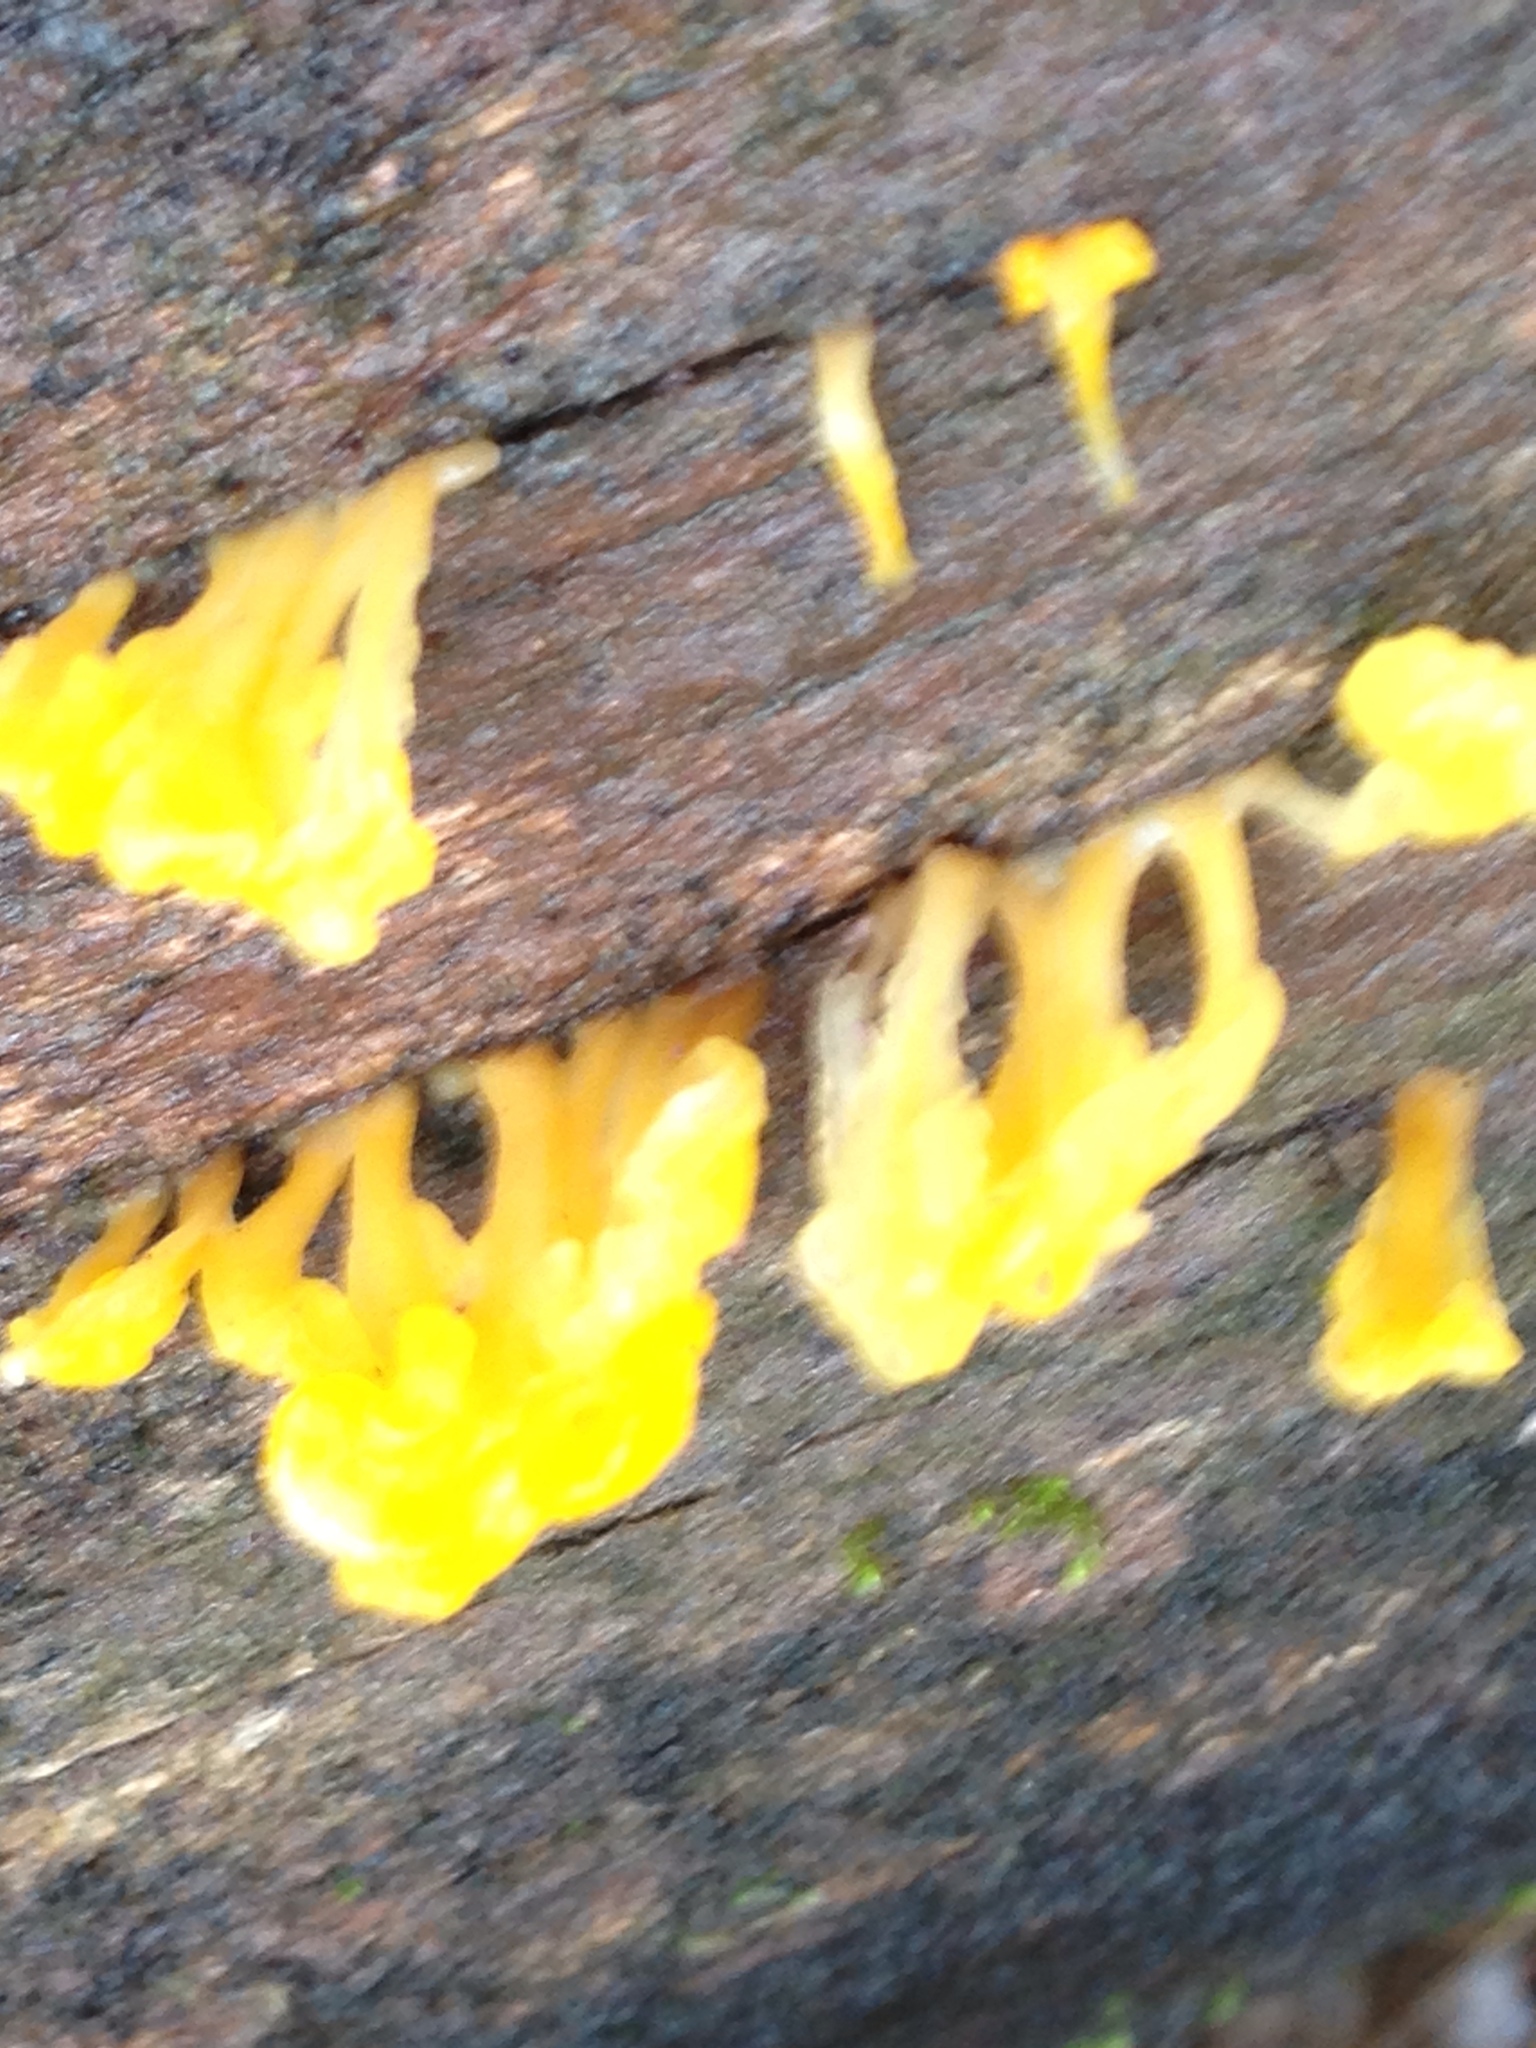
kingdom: Fungi
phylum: Basidiomycota
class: Dacrymycetes
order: Dacrymycetales
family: Dacrymycetaceae
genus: Dacrymyces
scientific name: Dacrymyces spathularius
